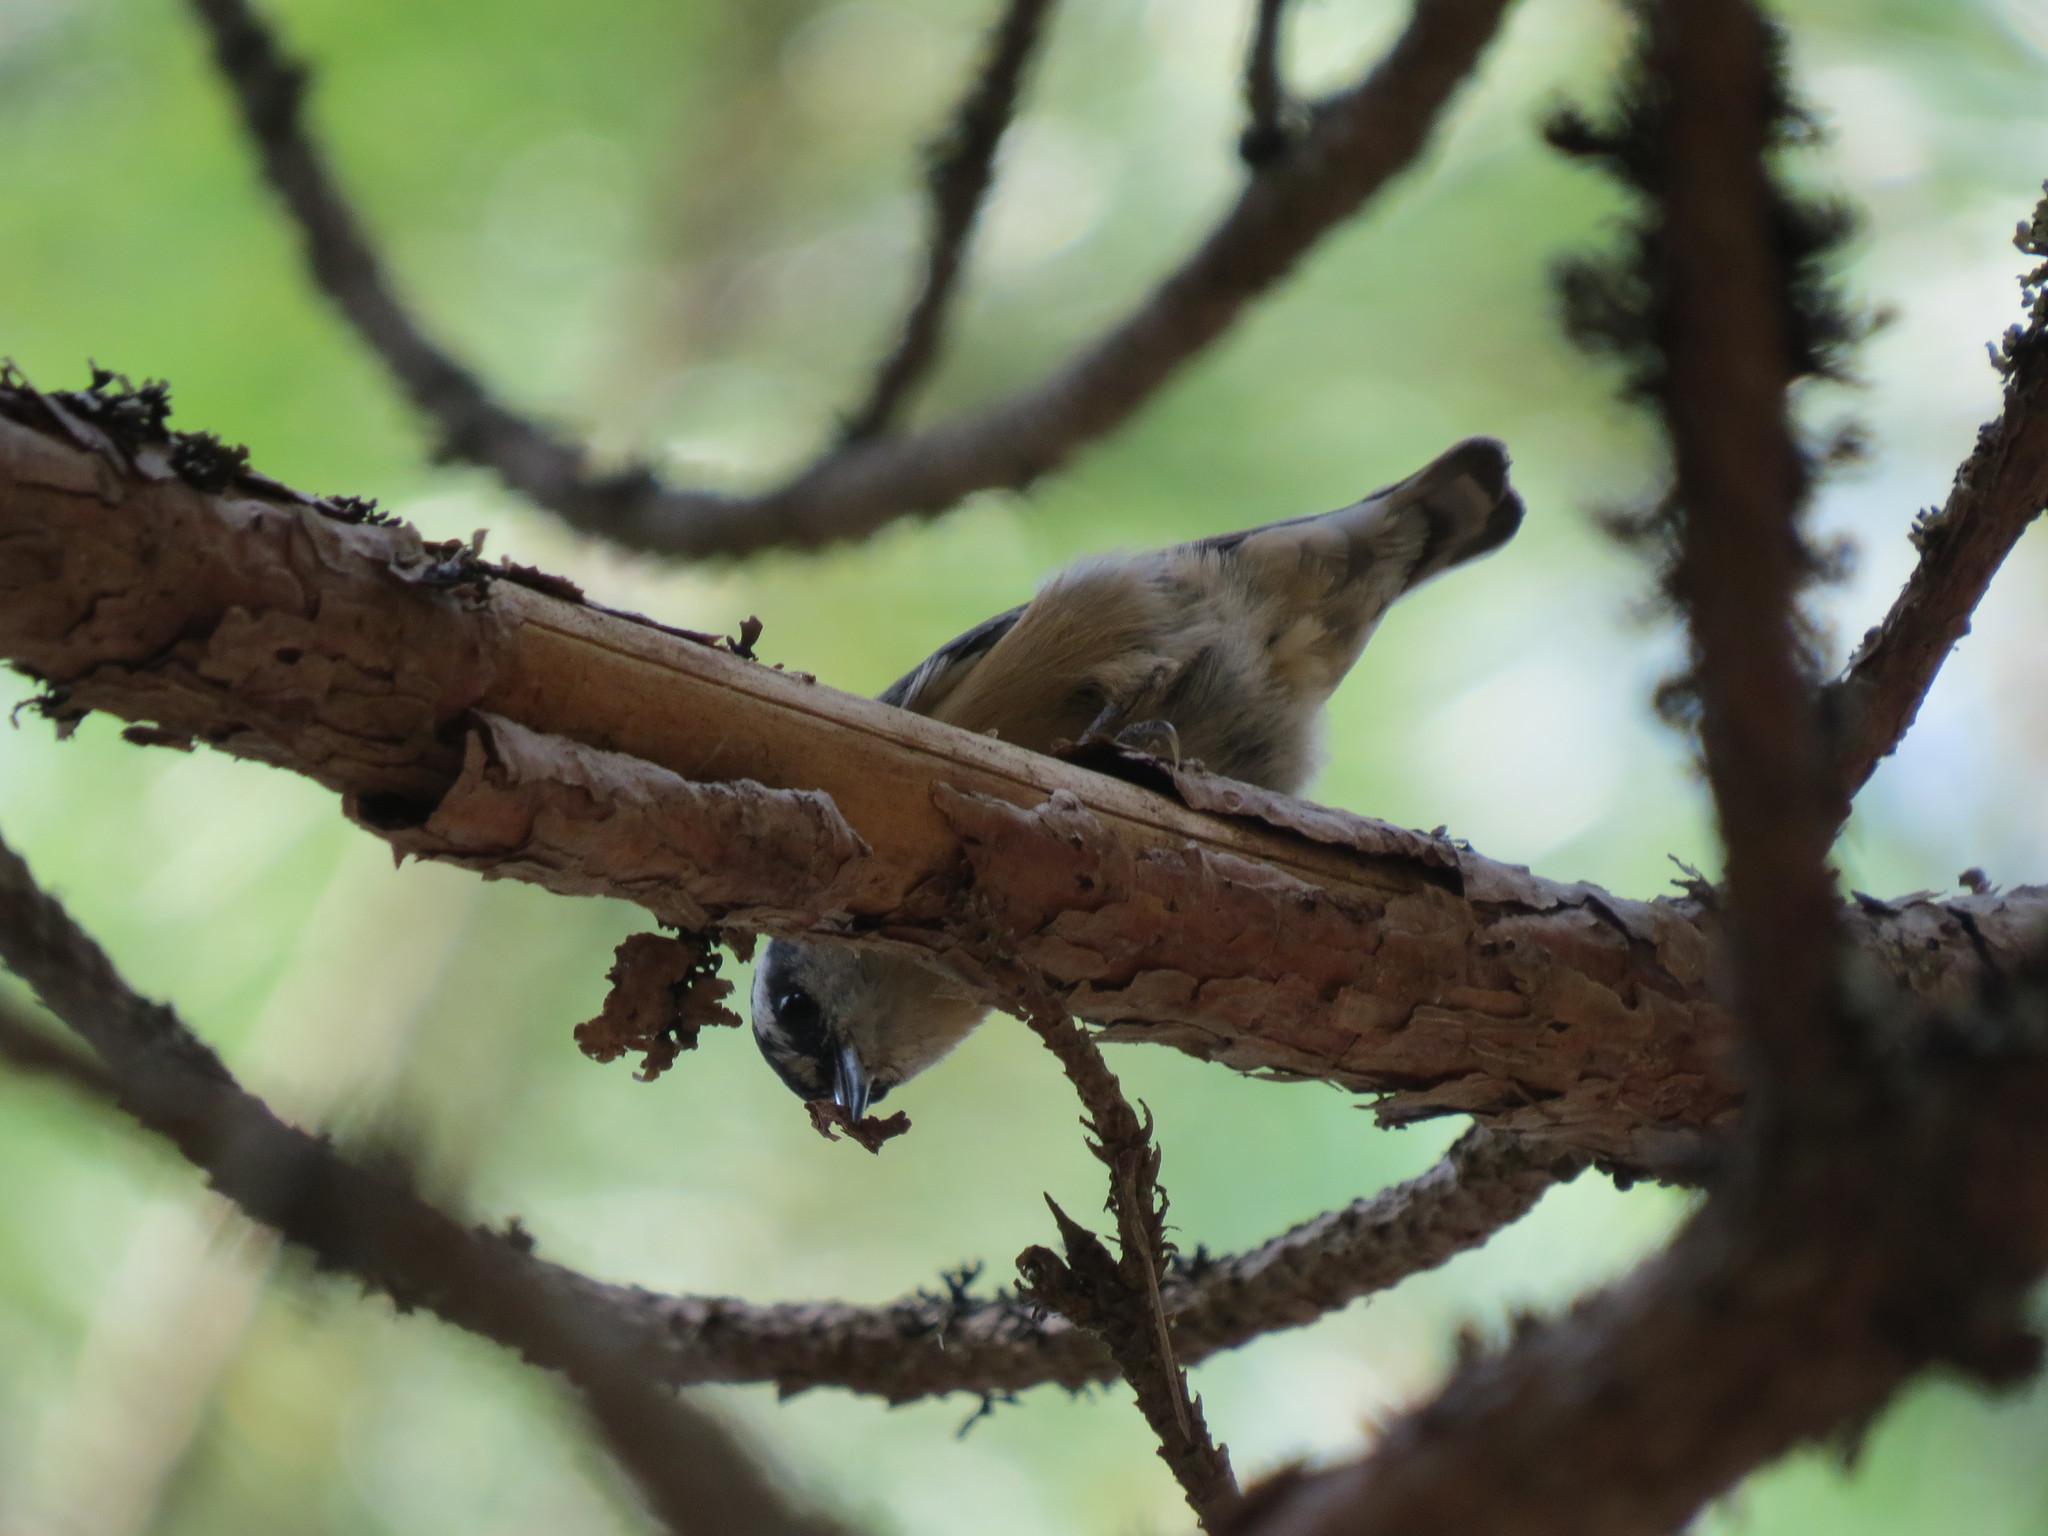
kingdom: Animalia
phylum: Chordata
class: Aves
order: Passeriformes
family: Sittidae
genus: Sitta
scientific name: Sitta canadensis
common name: Red-breasted nuthatch
